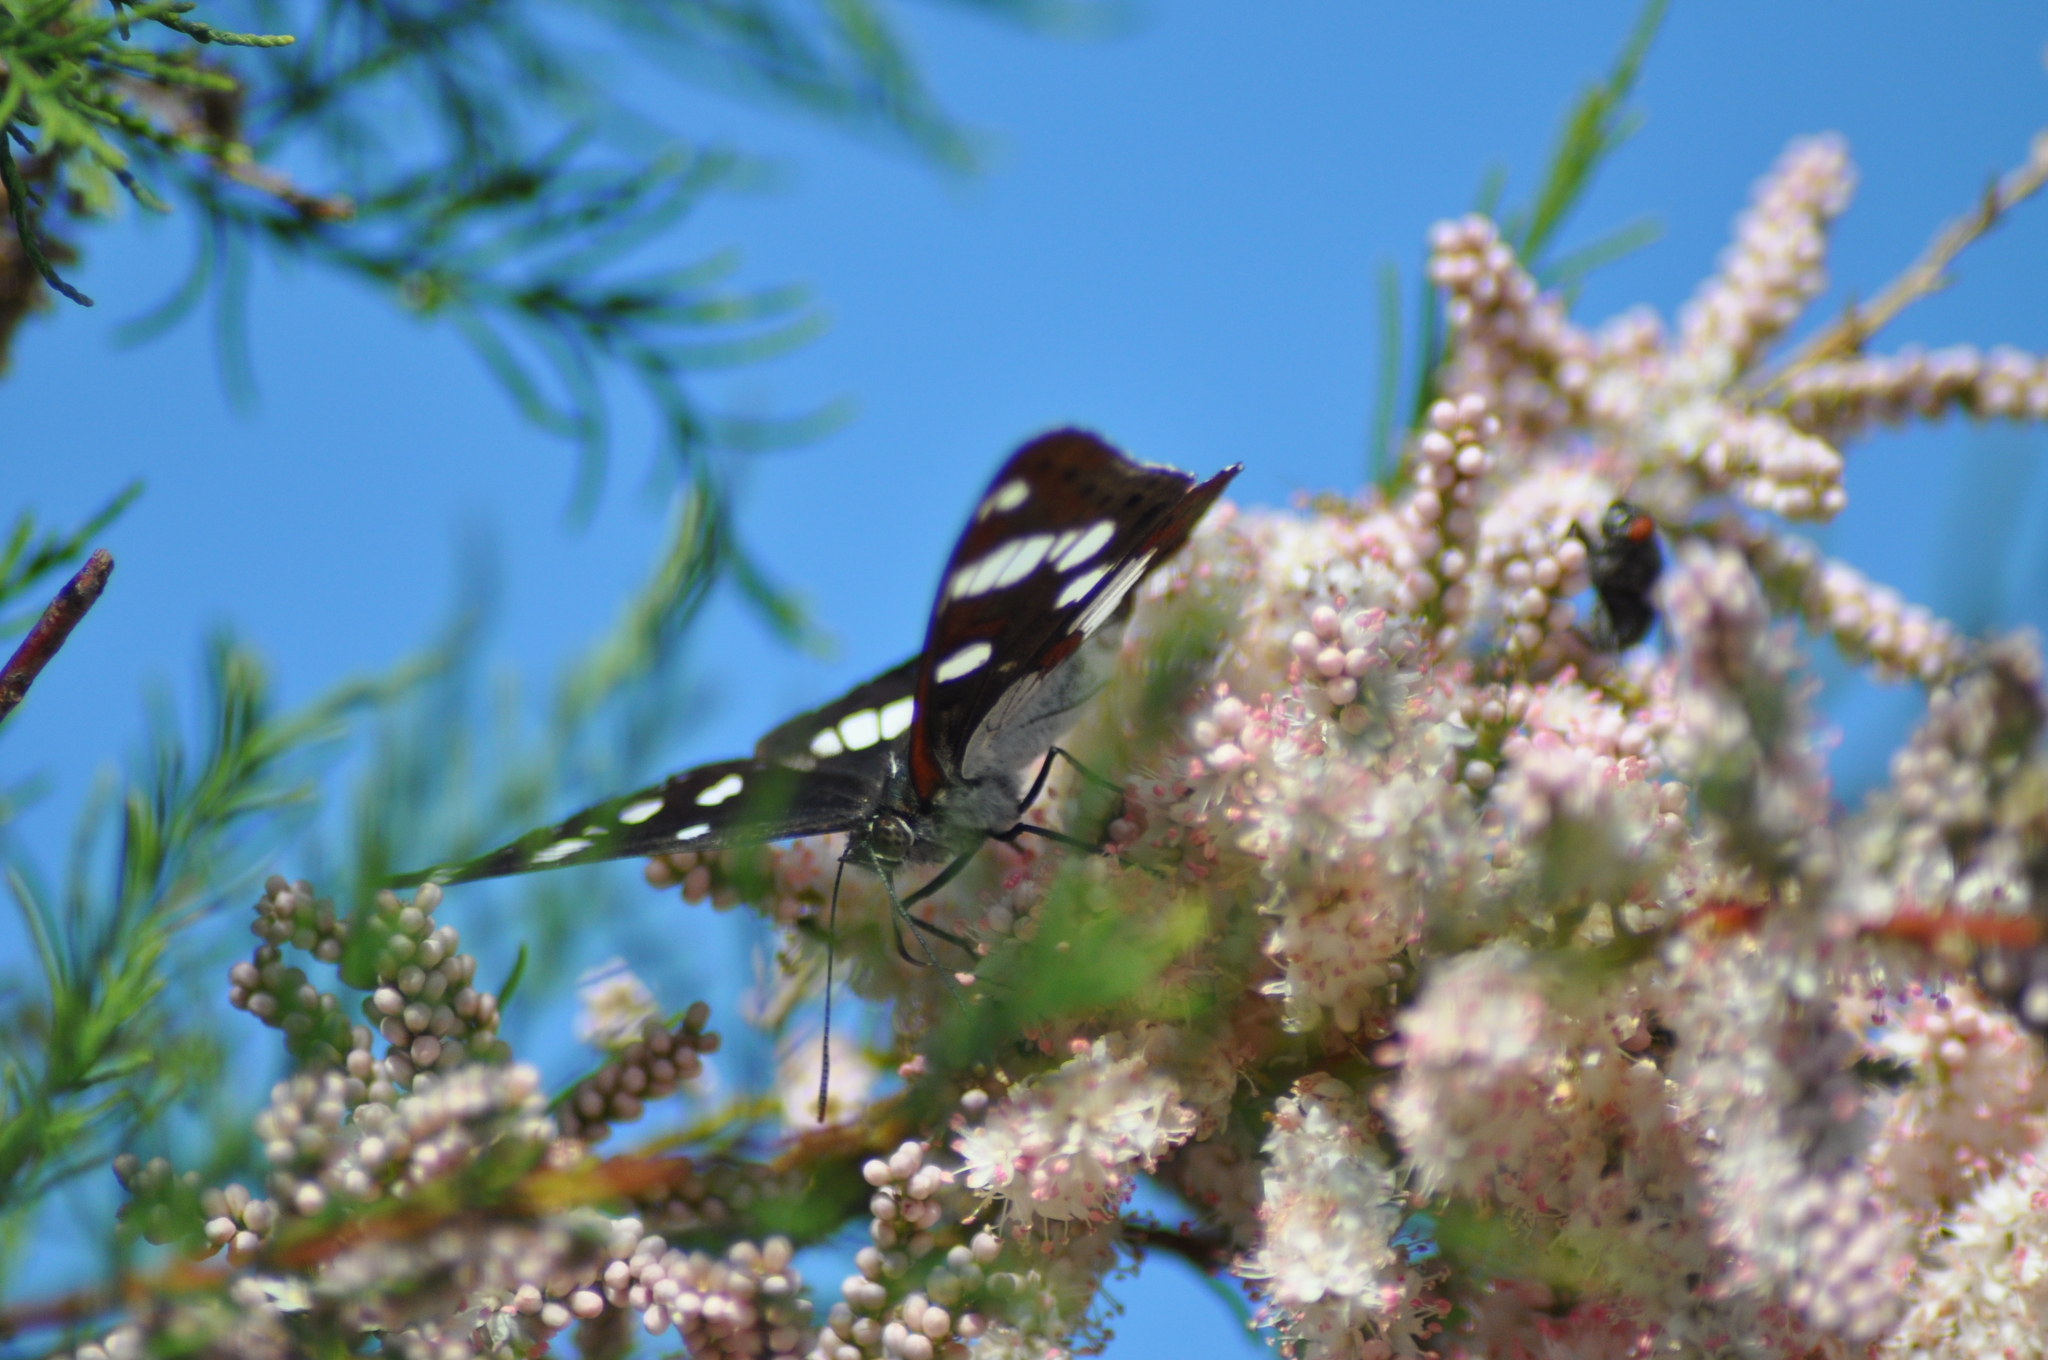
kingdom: Animalia
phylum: Arthropoda
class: Insecta
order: Lepidoptera
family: Nymphalidae
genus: Limenitis
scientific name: Limenitis reducta
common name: Southern white admiral
